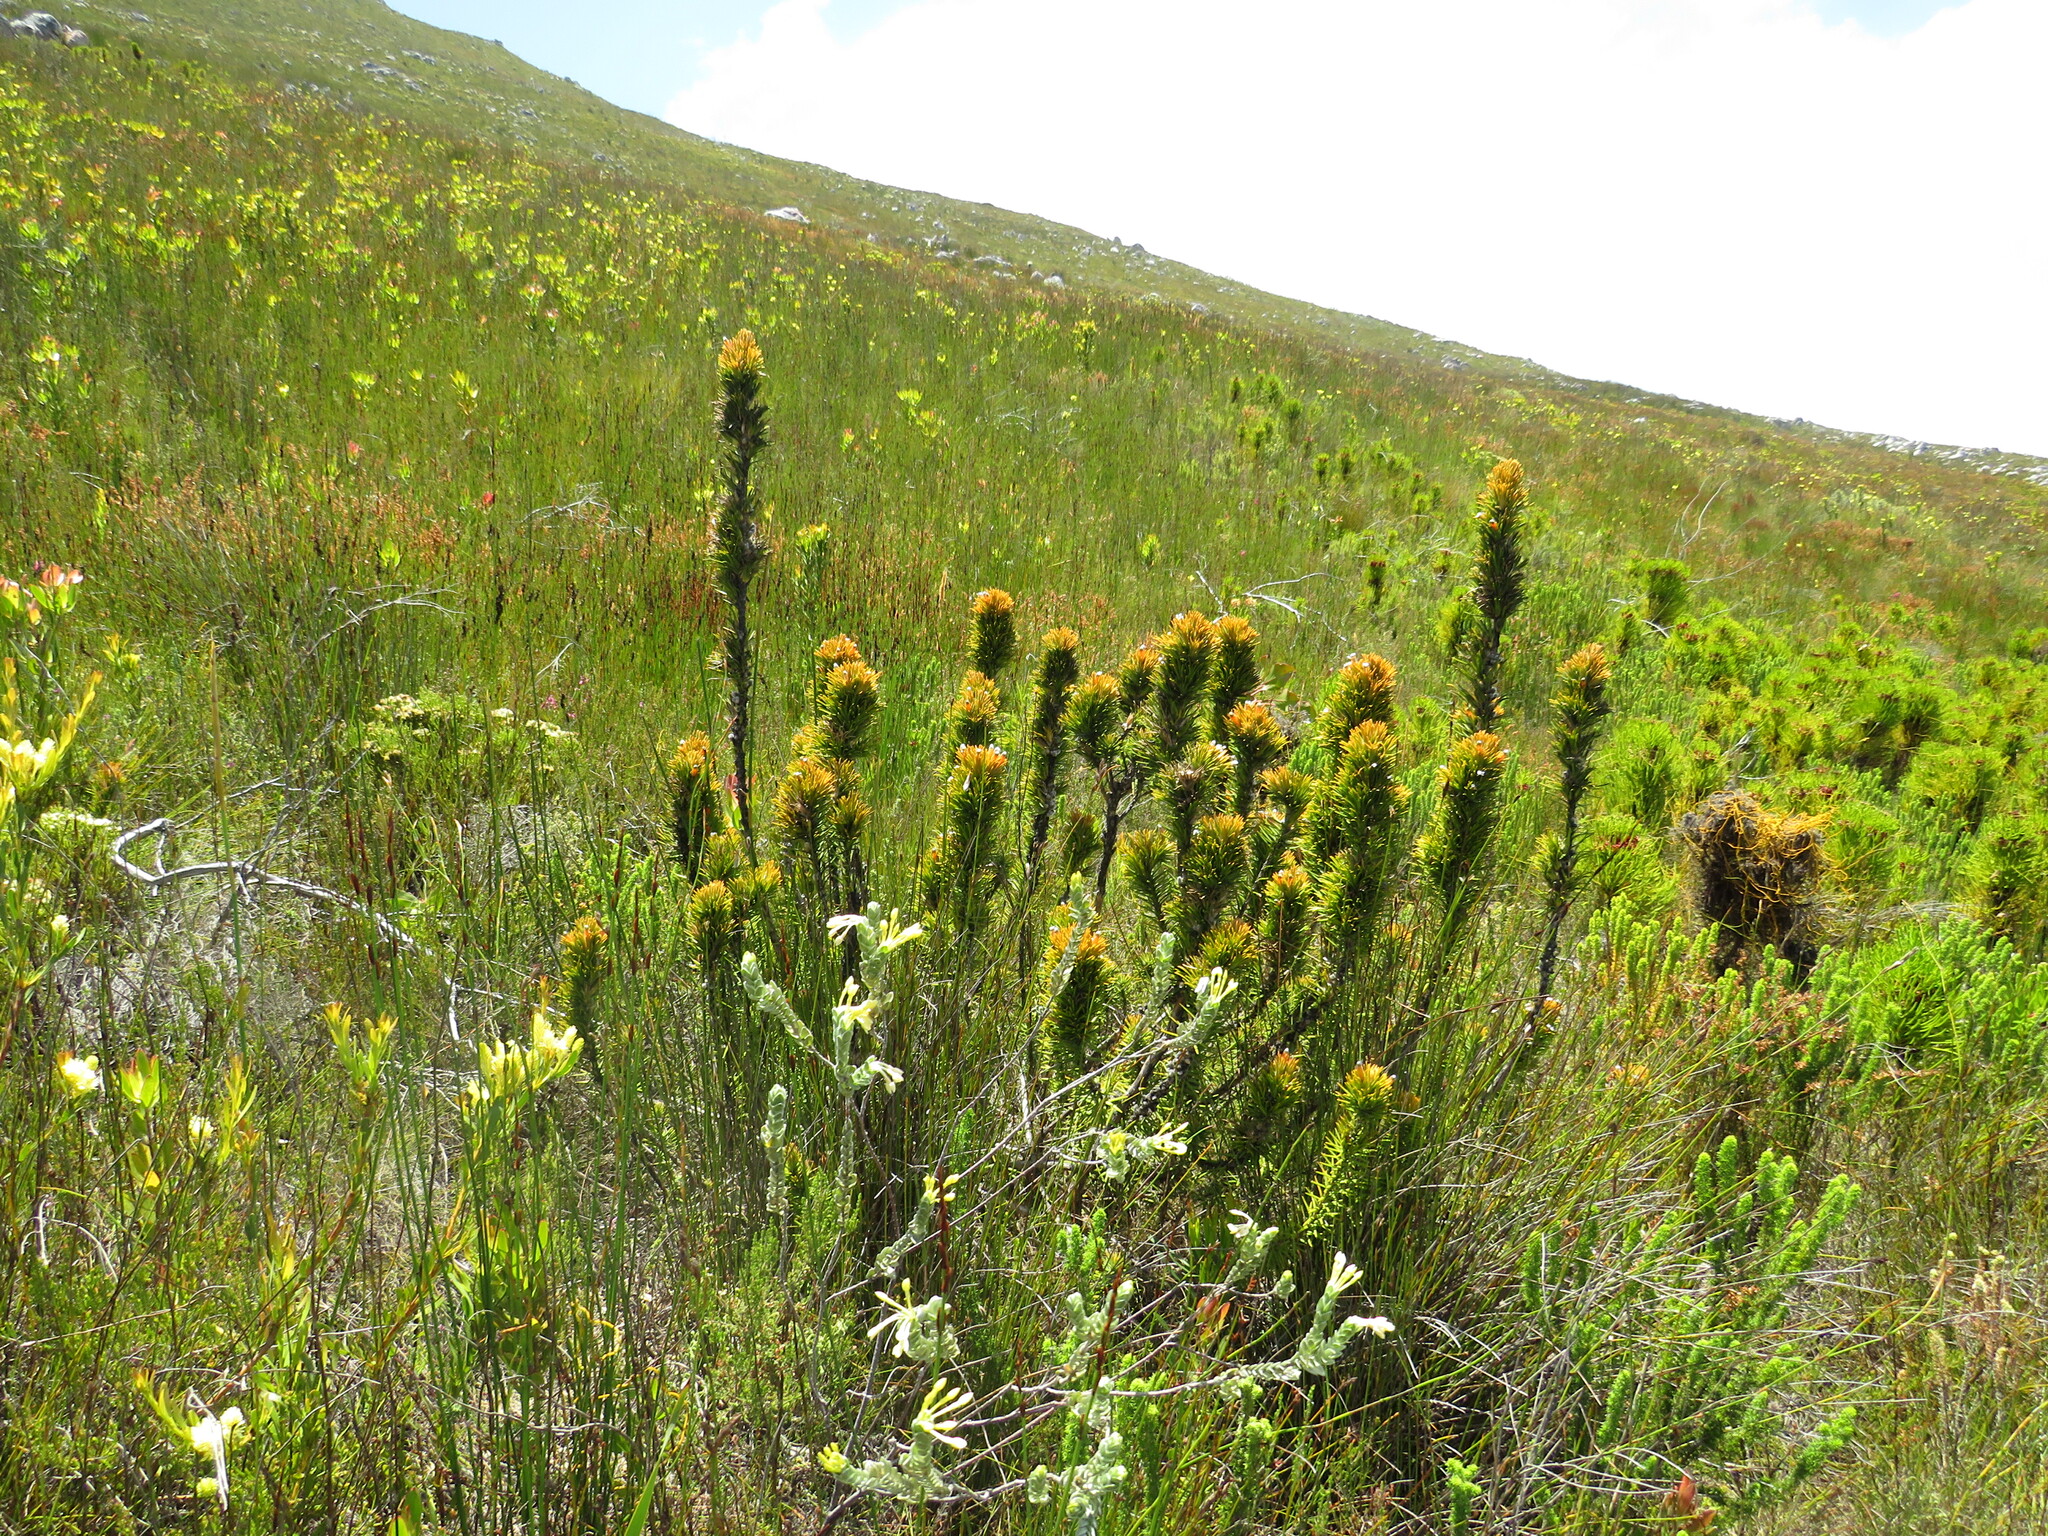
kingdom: Plantae
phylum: Tracheophyta
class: Magnoliopsida
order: Lamiales
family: Stilbaceae
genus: Retzia
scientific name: Retzia capensis
